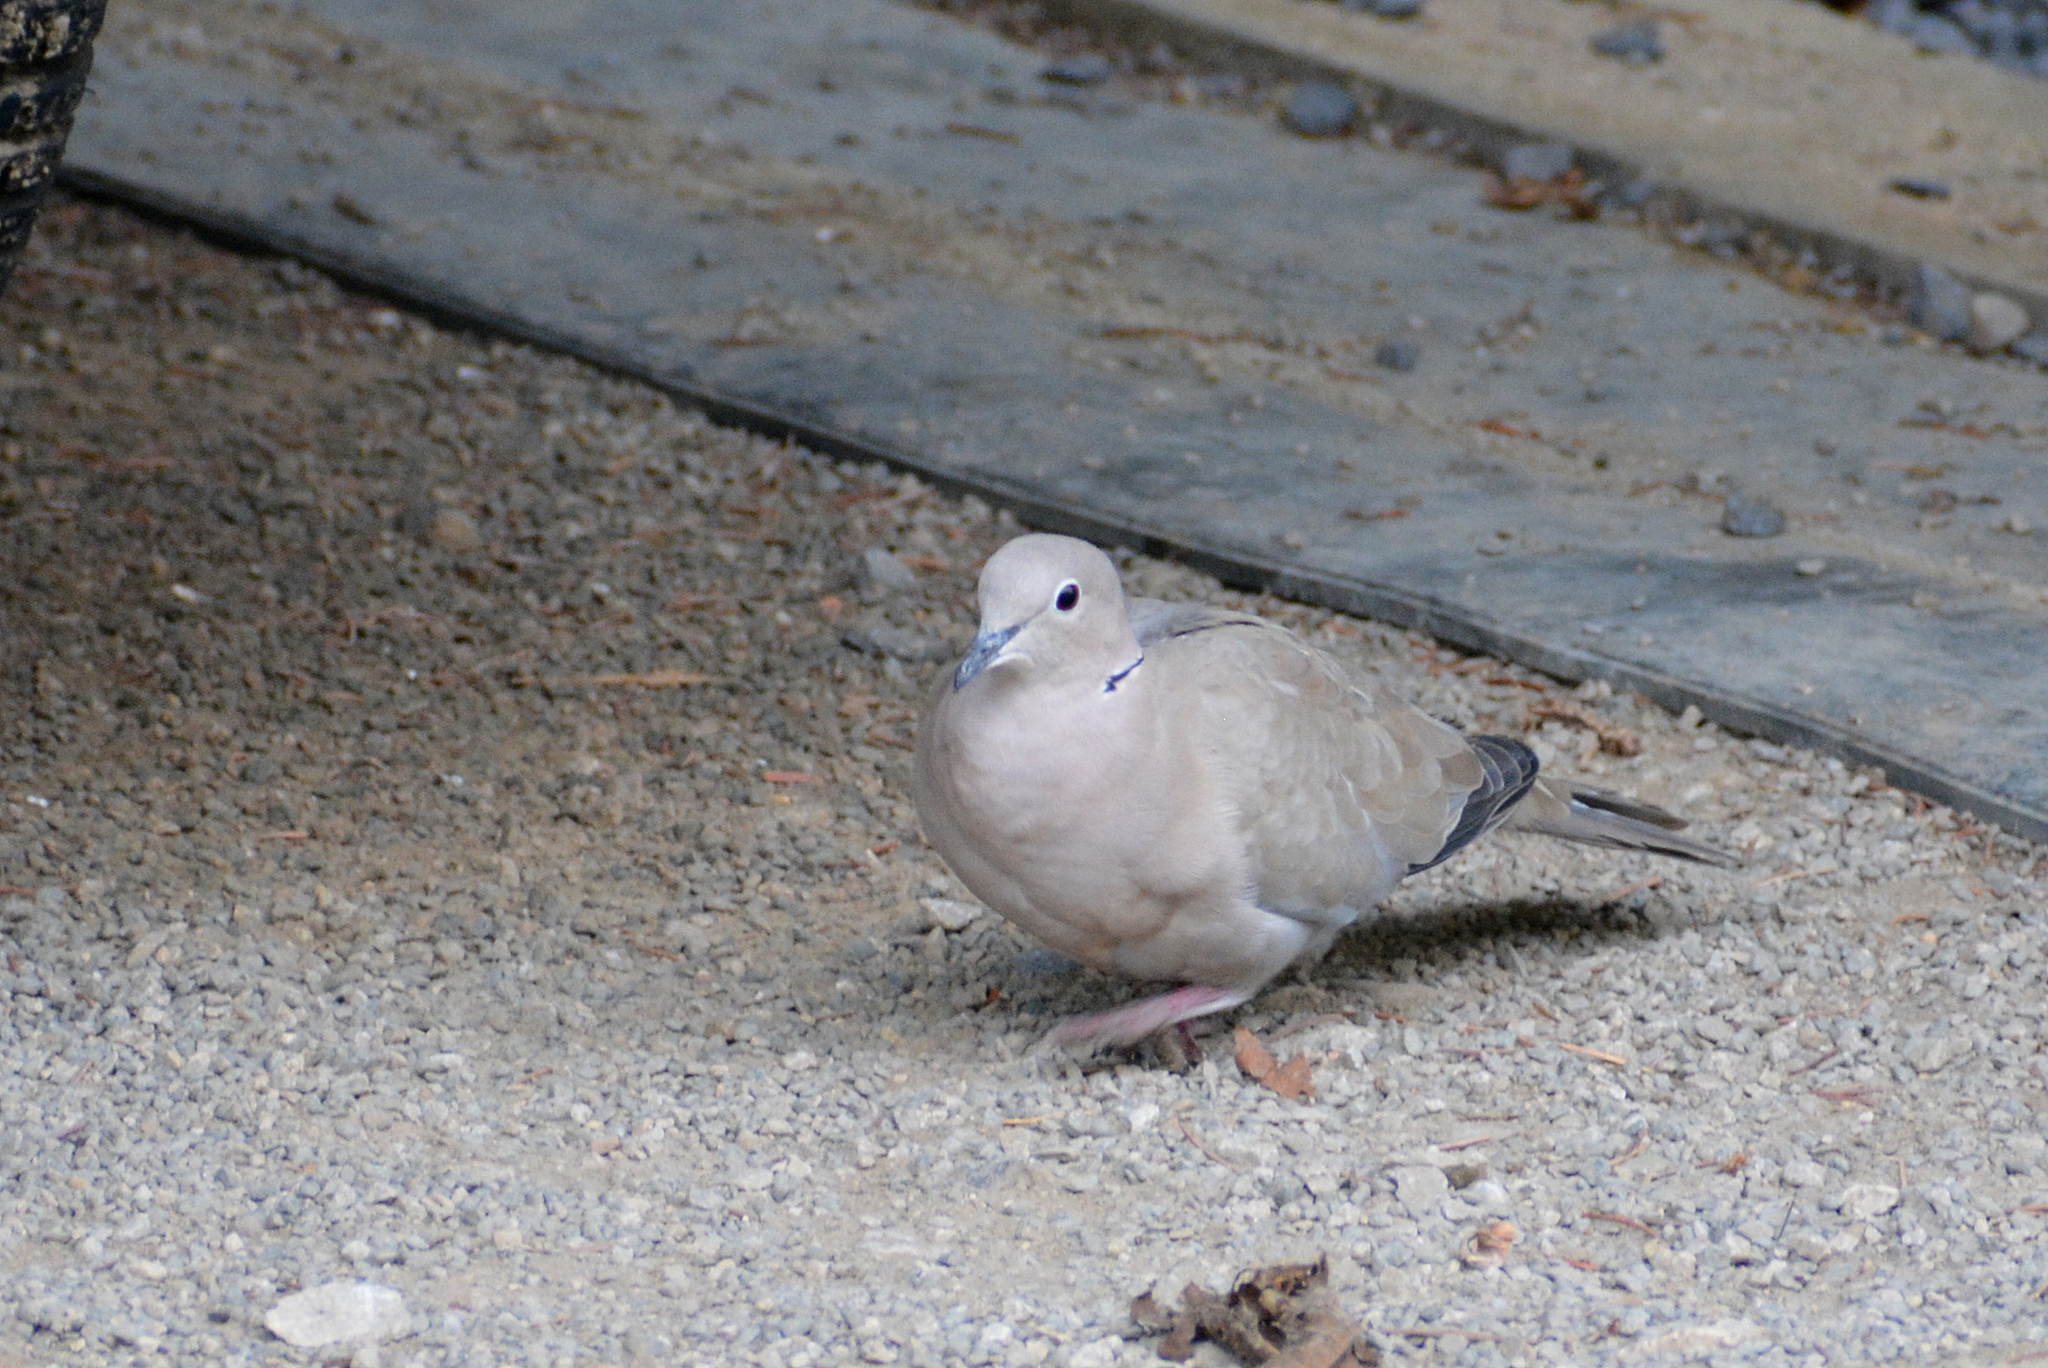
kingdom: Animalia
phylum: Chordata
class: Aves
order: Columbiformes
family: Columbidae
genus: Streptopelia
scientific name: Streptopelia decaocto
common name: Eurasian collared dove
